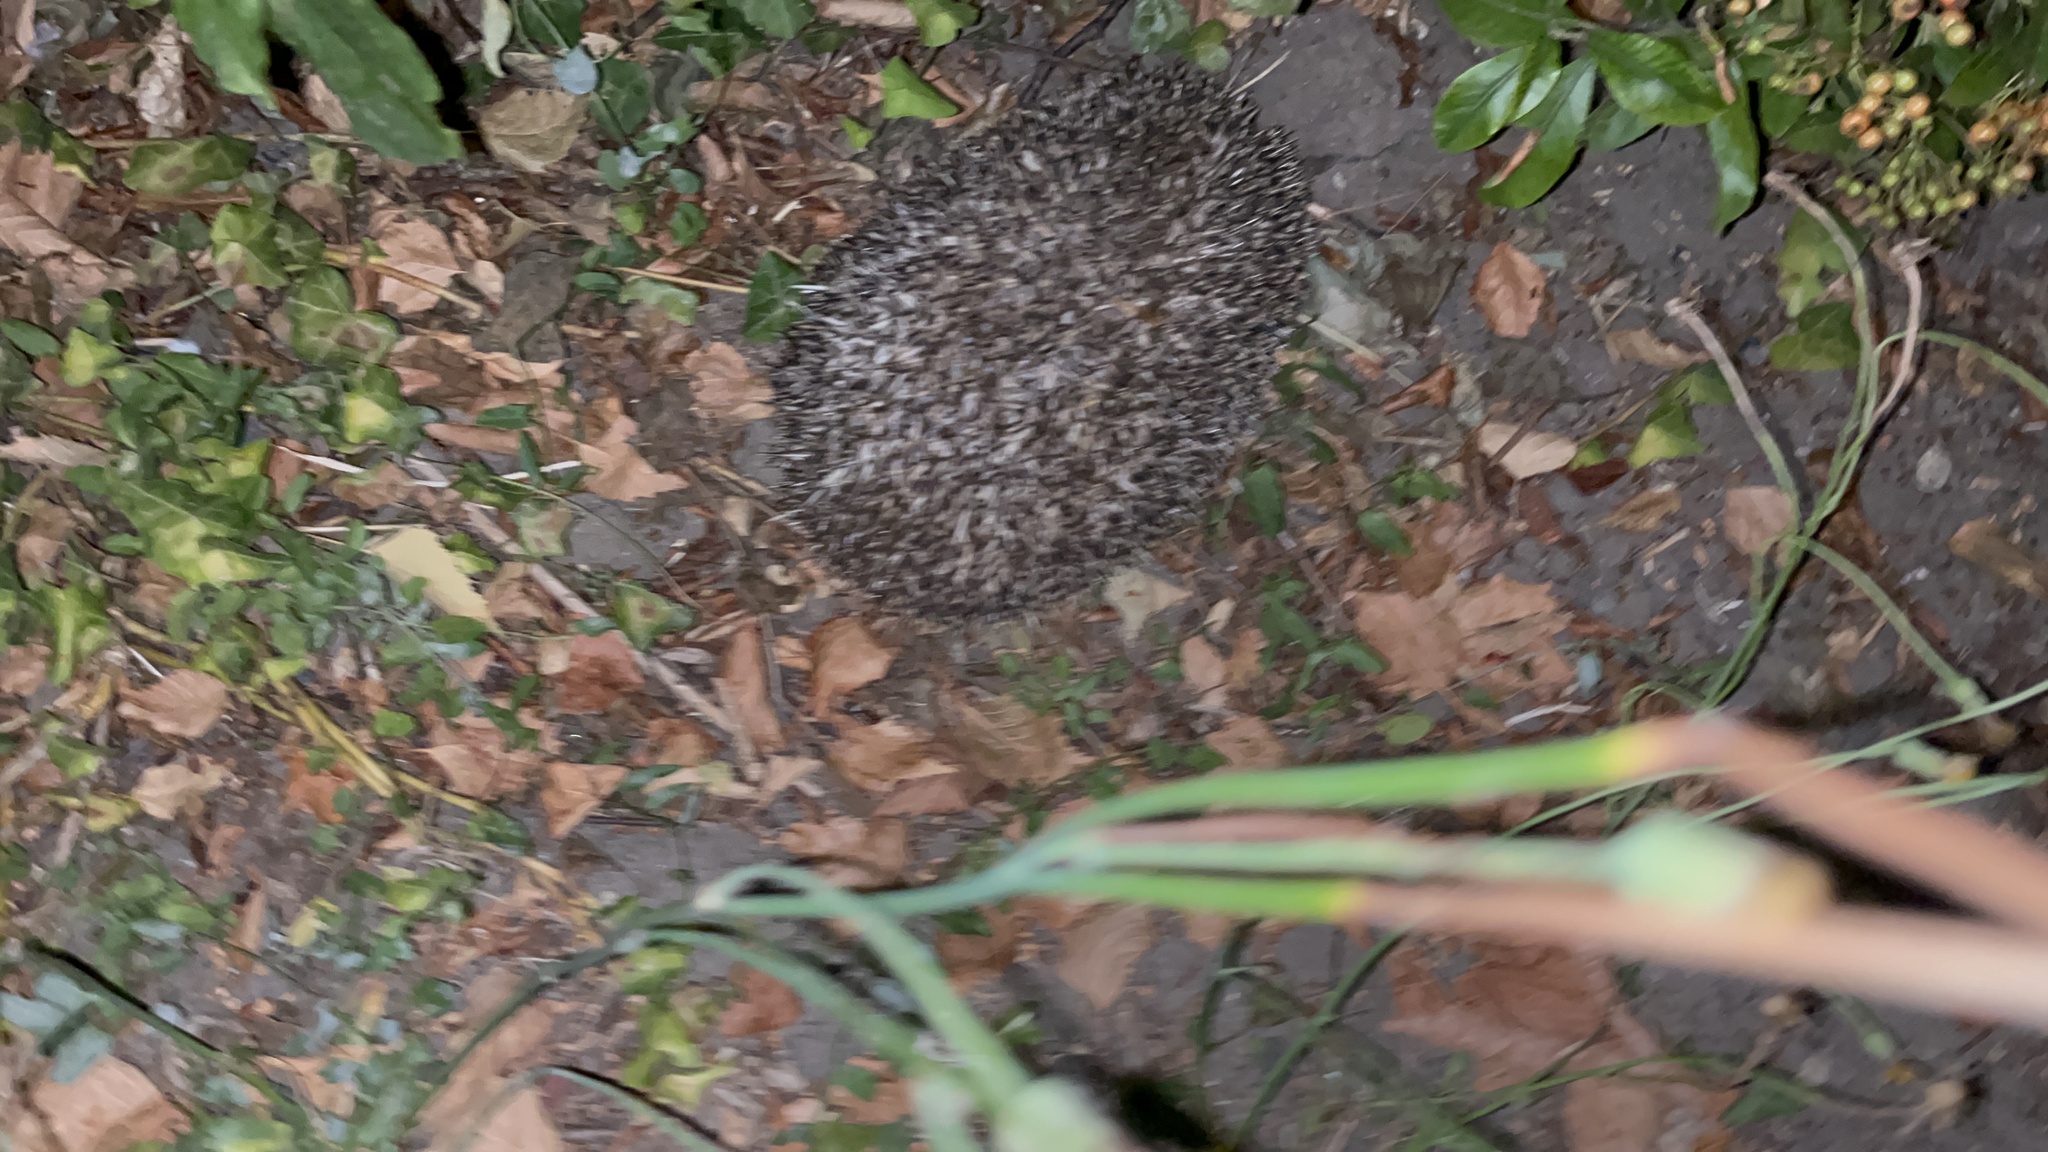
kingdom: Animalia
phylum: Chordata
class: Mammalia
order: Erinaceomorpha
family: Erinaceidae
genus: Erinaceus
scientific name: Erinaceus europaeus
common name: West european hedgehog
